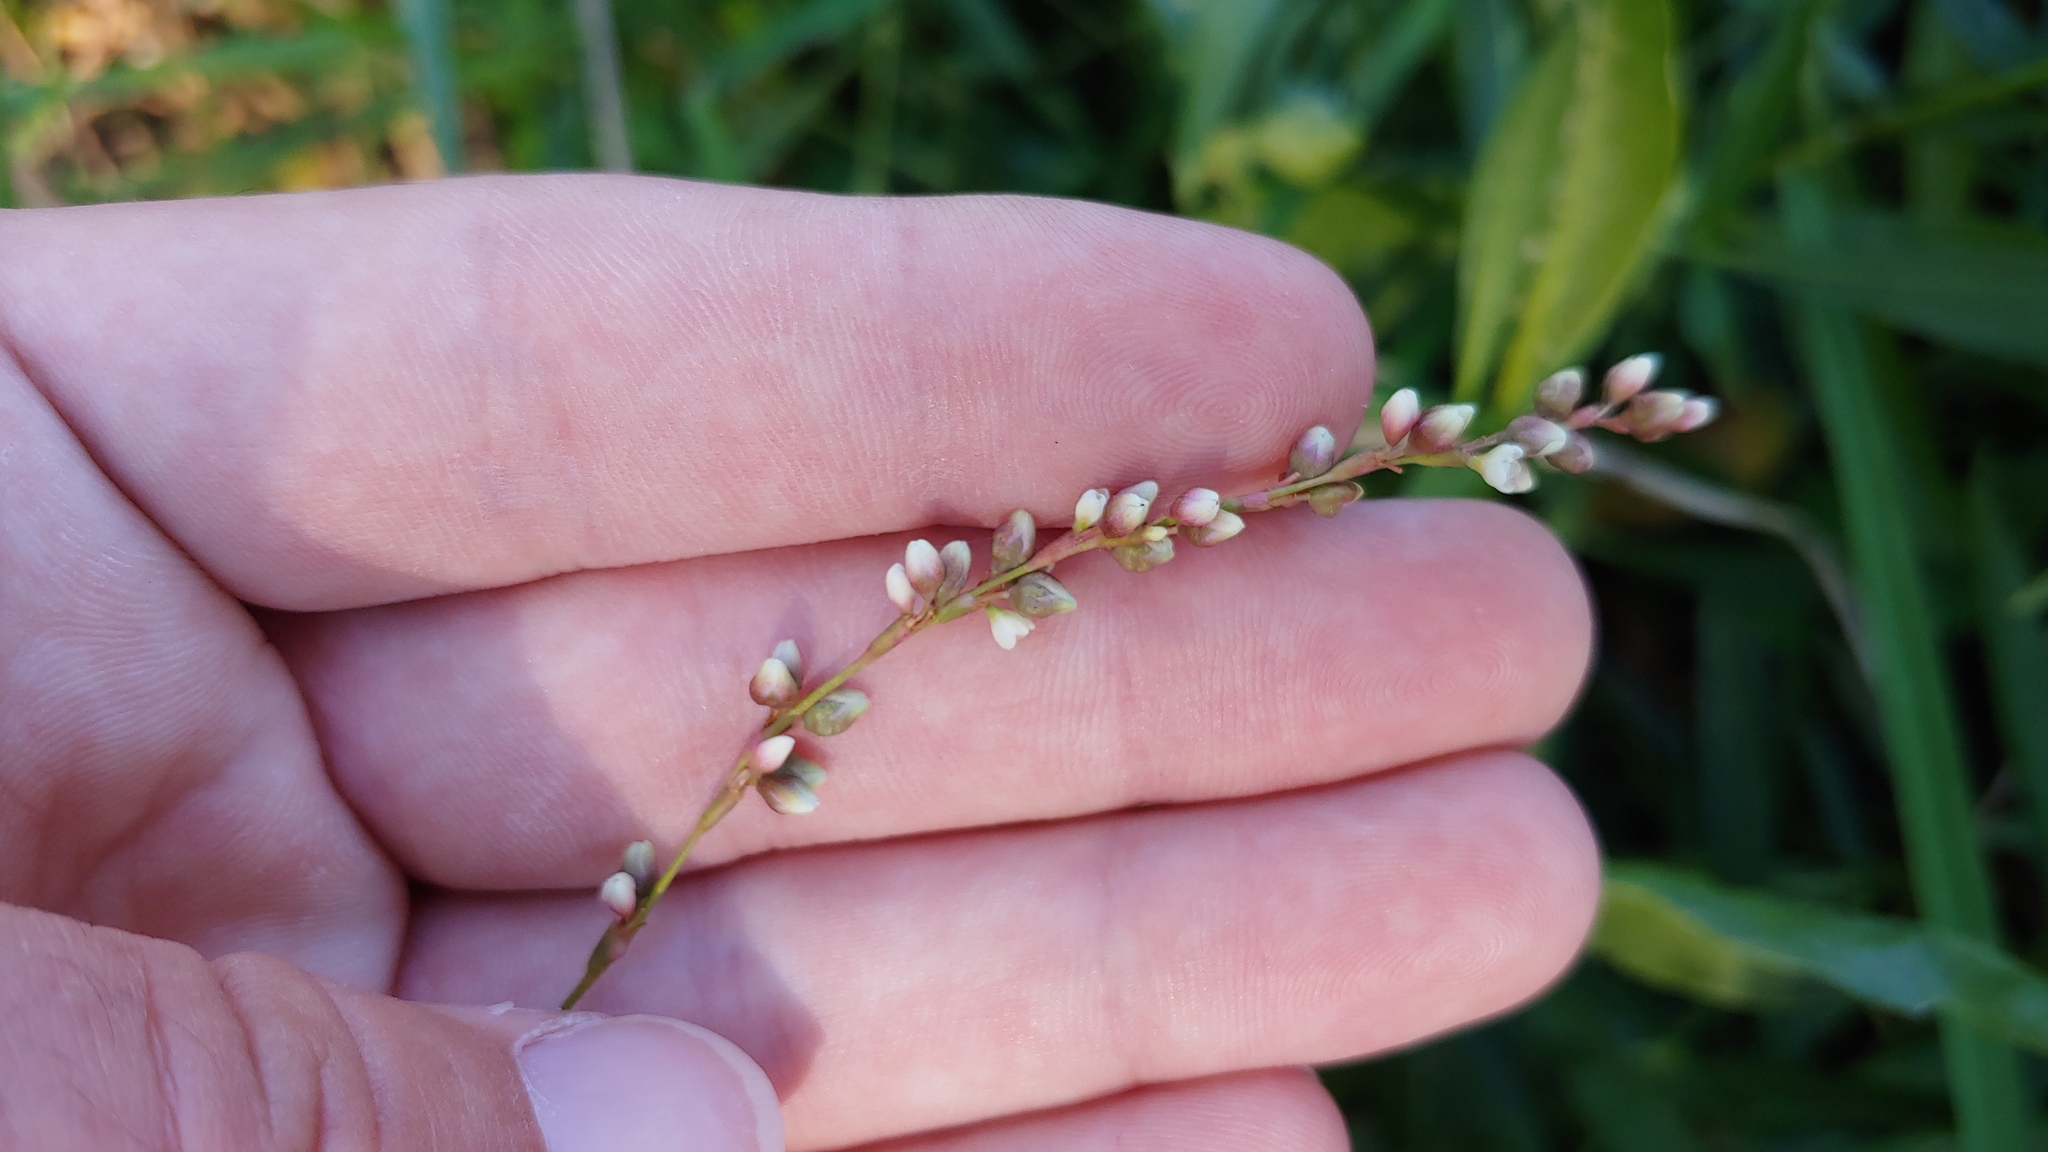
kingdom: Plantae
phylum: Tracheophyta
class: Magnoliopsida
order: Caryophyllales
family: Polygonaceae
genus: Persicaria
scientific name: Persicaria punctata
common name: Dotted smartweed
